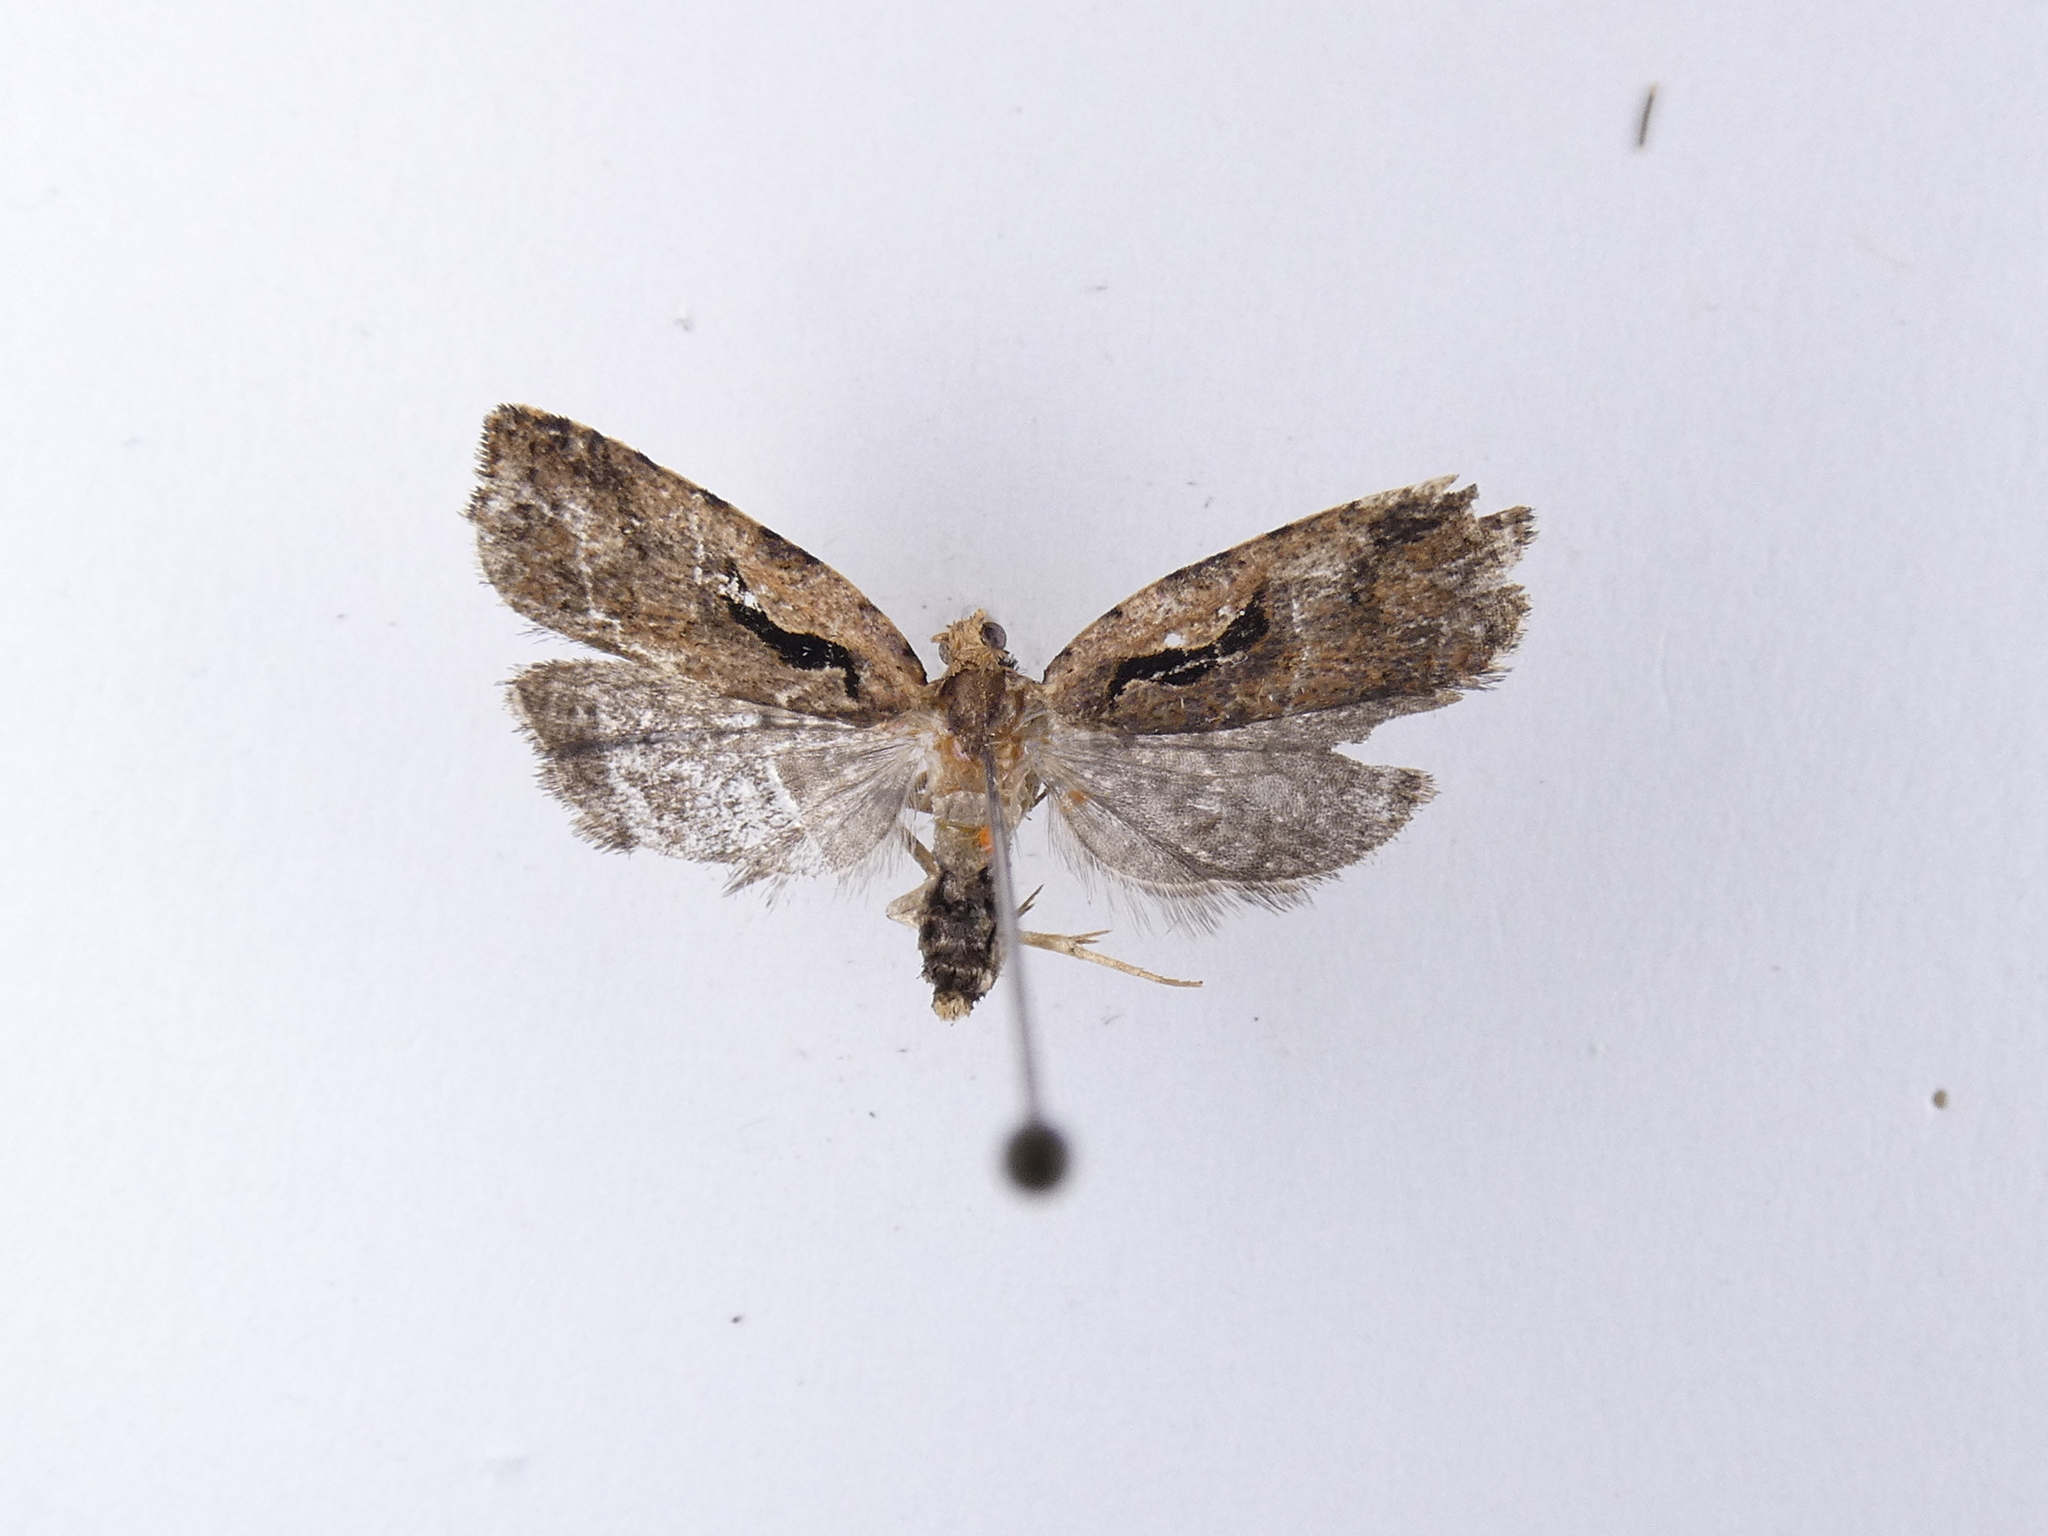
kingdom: Animalia
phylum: Arthropoda
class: Insecta
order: Lepidoptera
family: Tortricidae
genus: Cnephasia
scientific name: Cnephasia jactatana
